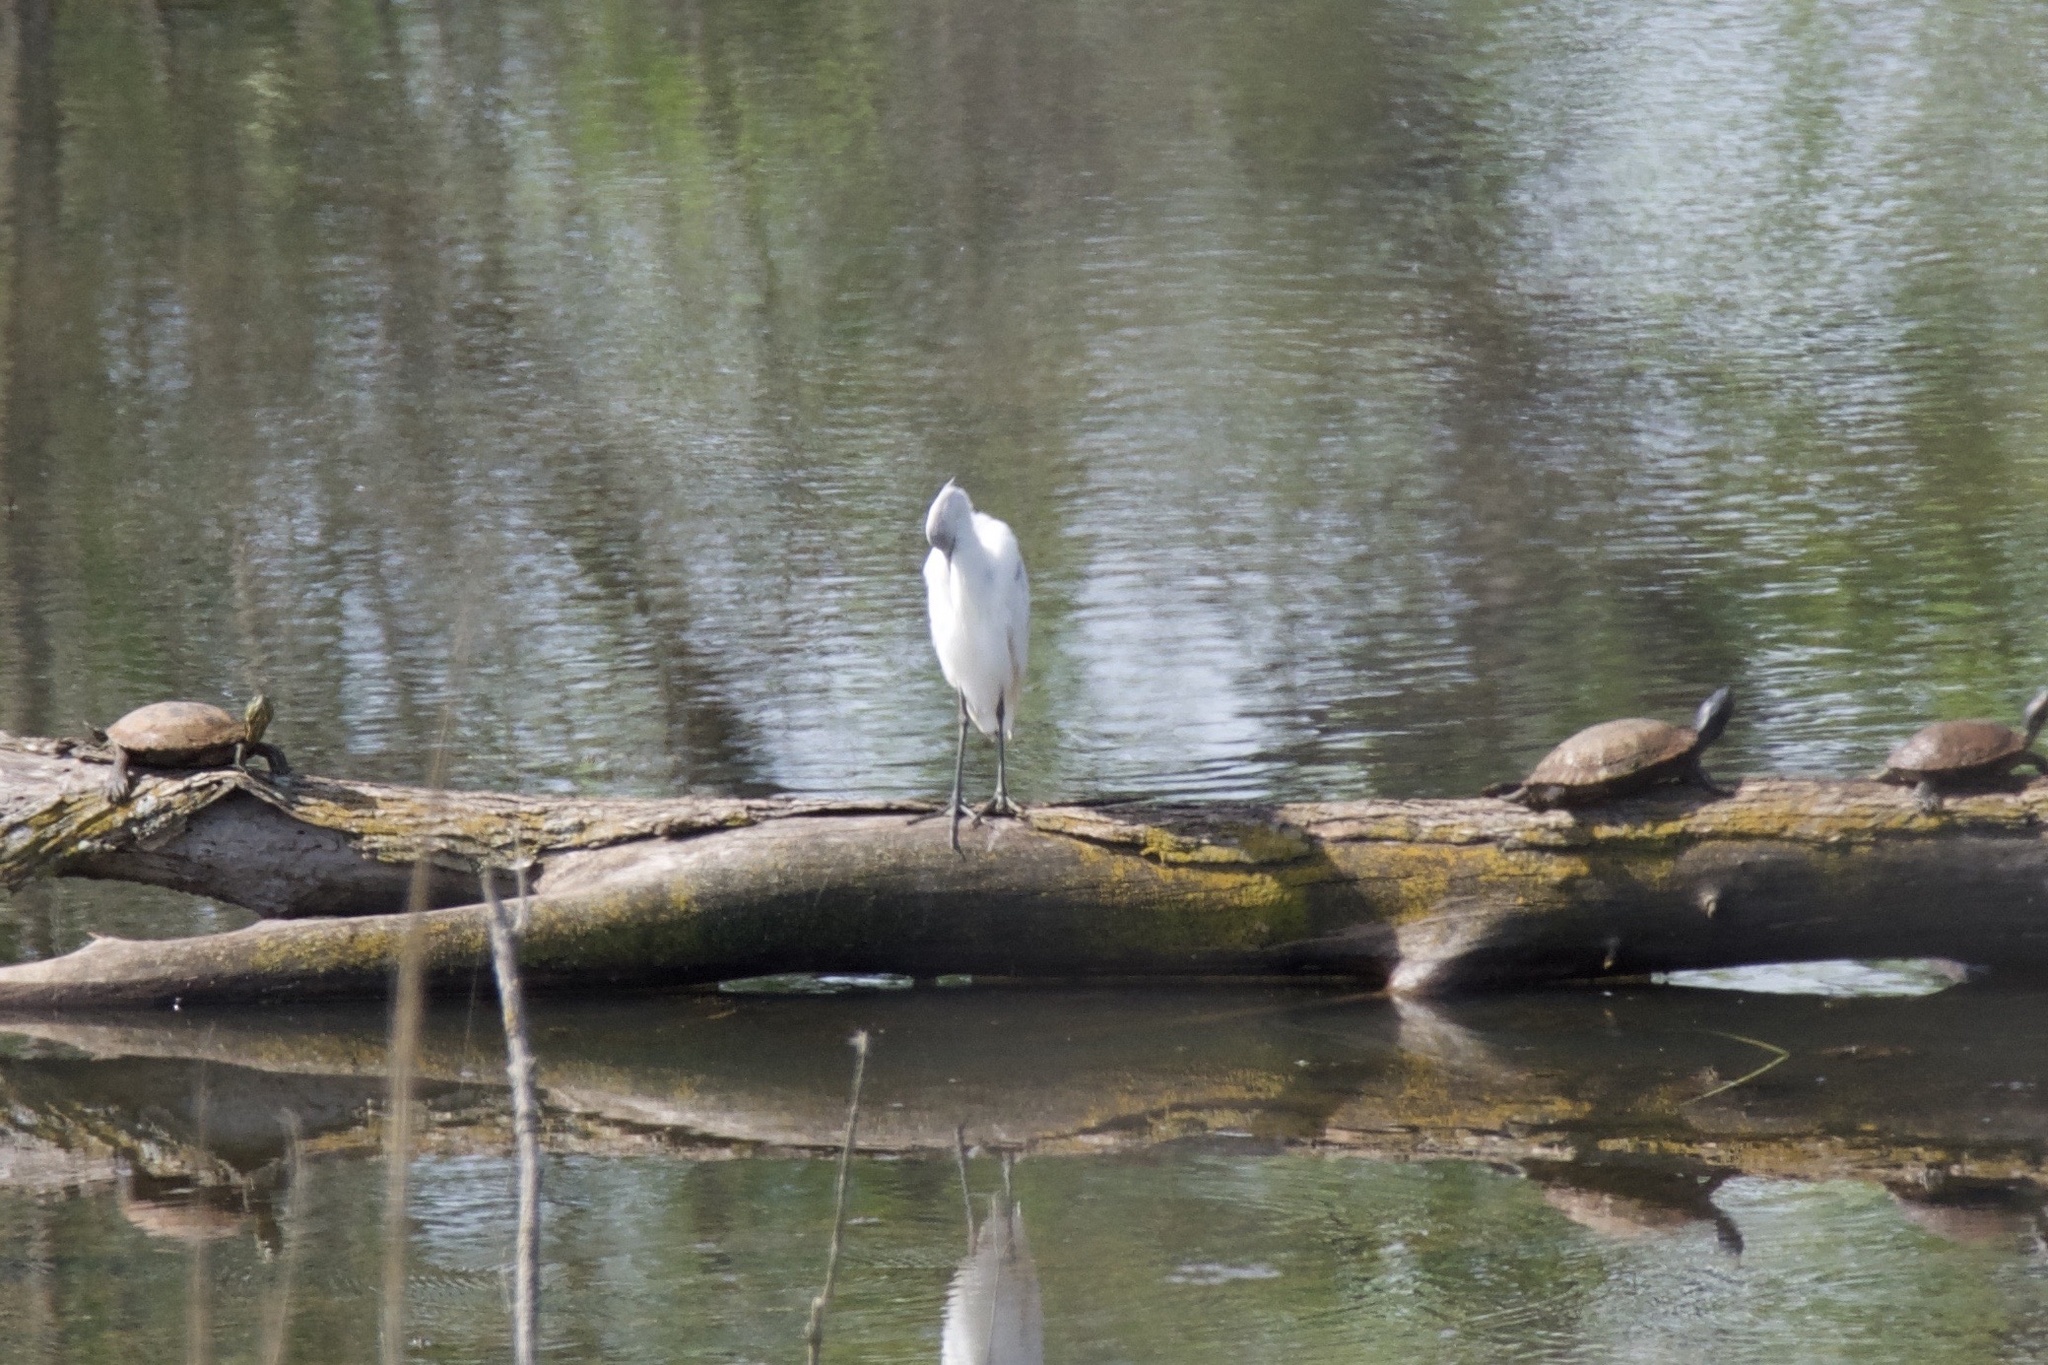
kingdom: Animalia
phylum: Chordata
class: Aves
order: Pelecaniformes
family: Ardeidae
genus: Egretta
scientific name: Egretta thula
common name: Snowy egret
